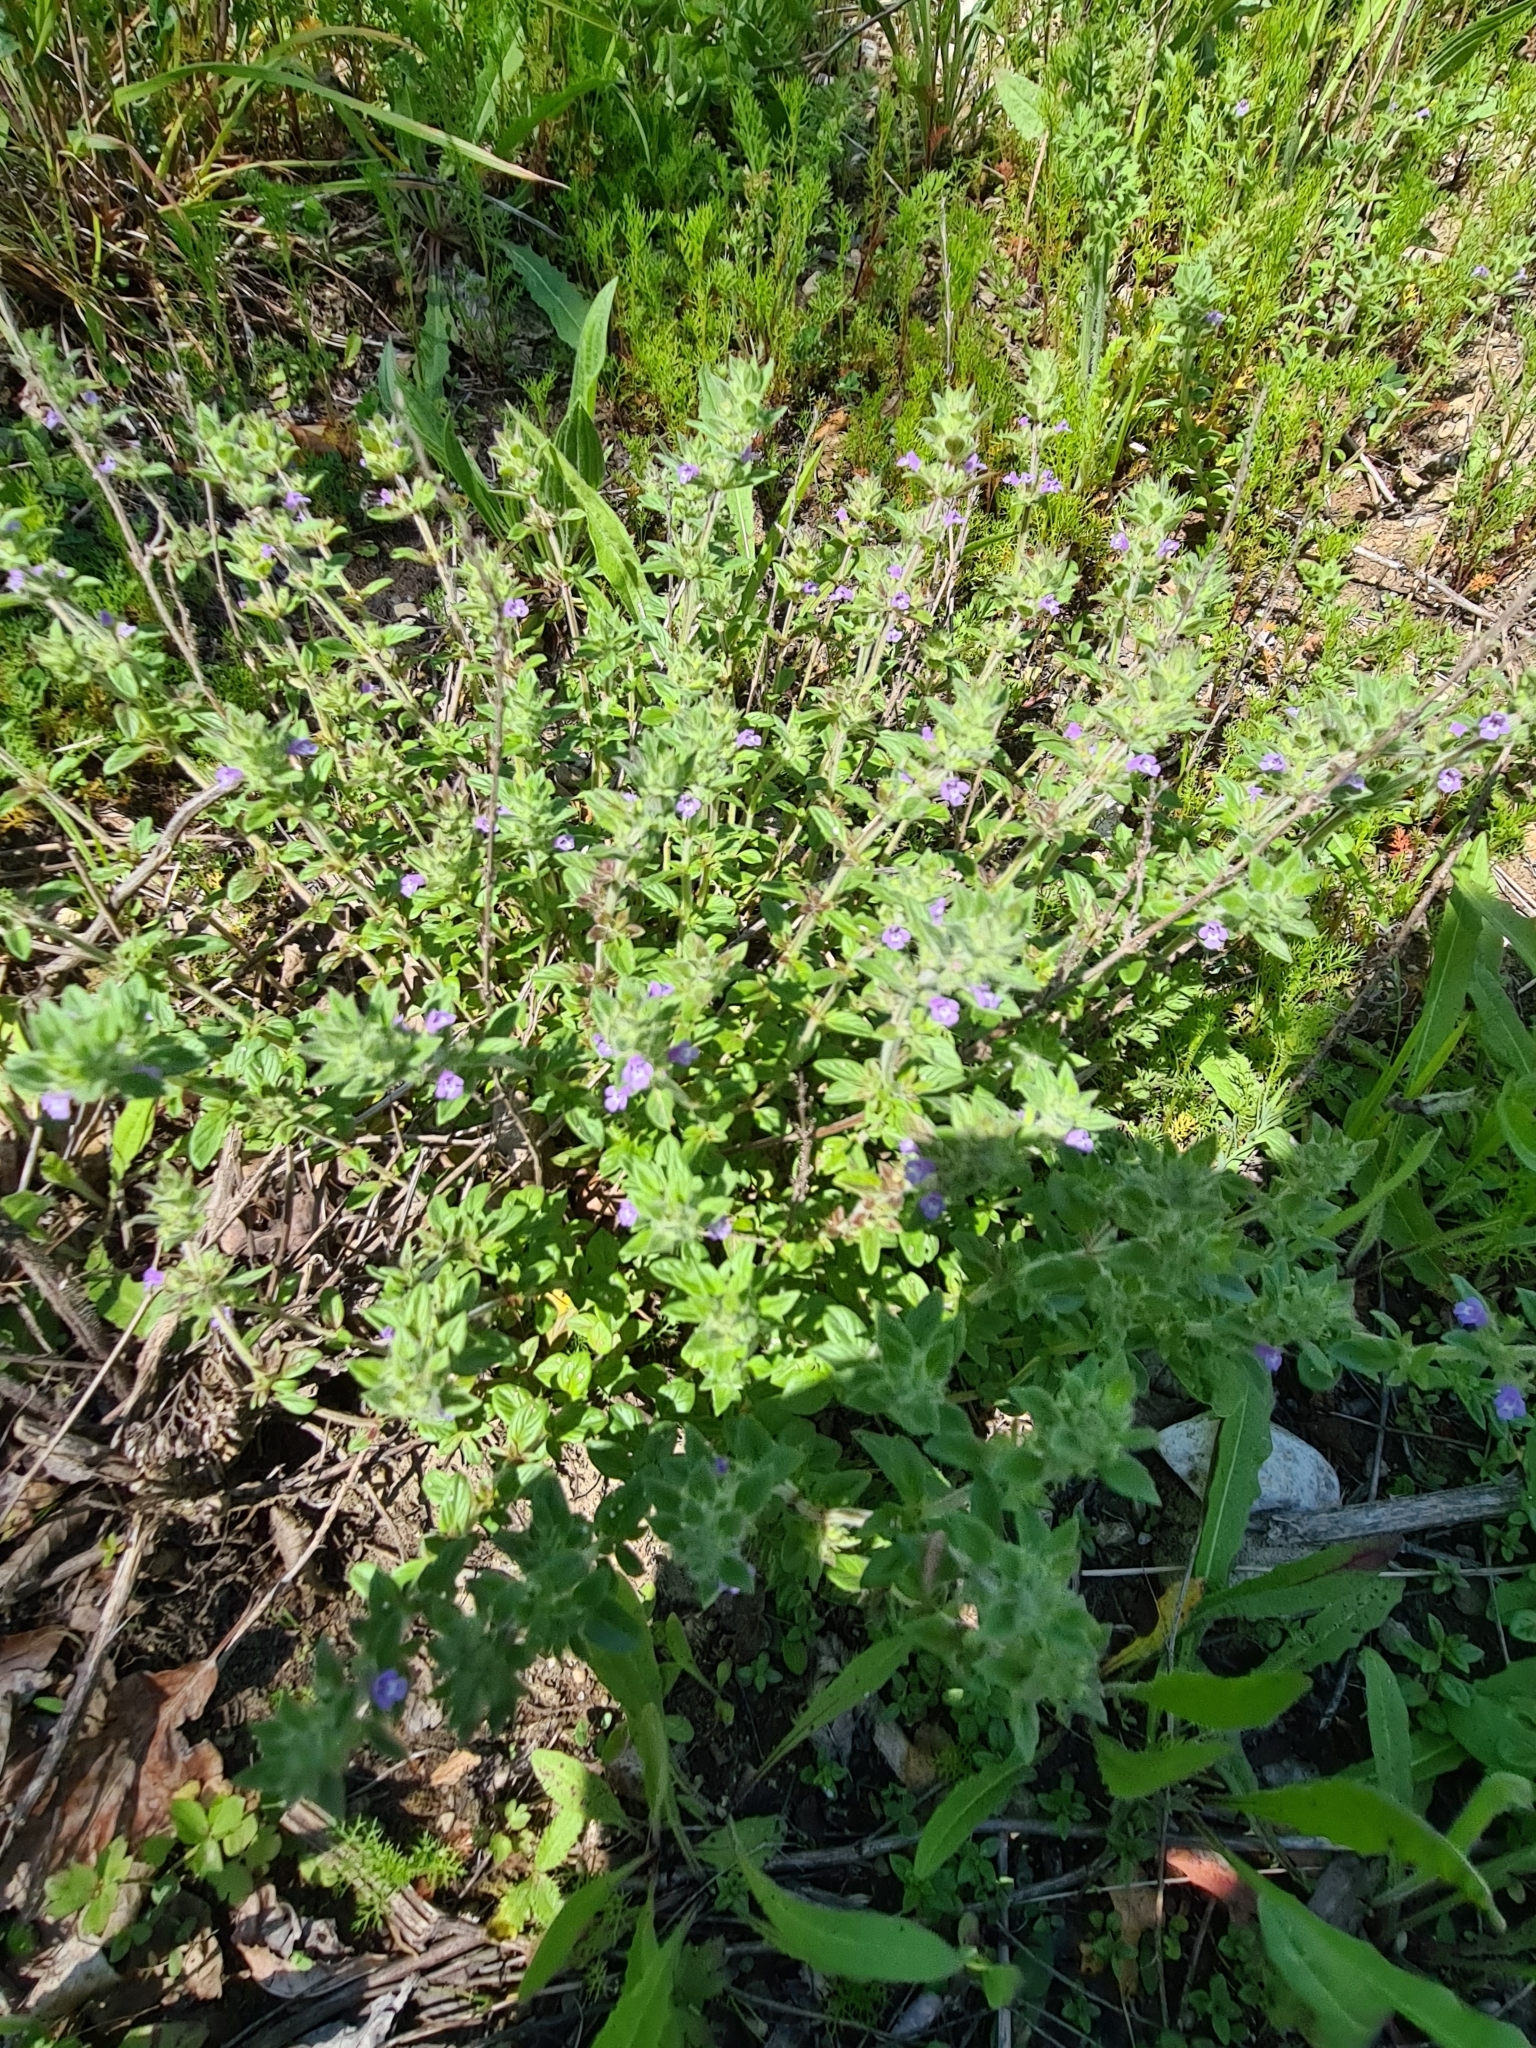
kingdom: Plantae
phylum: Tracheophyta
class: Magnoliopsida
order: Lamiales
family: Lamiaceae
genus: Clinopodium
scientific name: Clinopodium acinos
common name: Basil thyme
